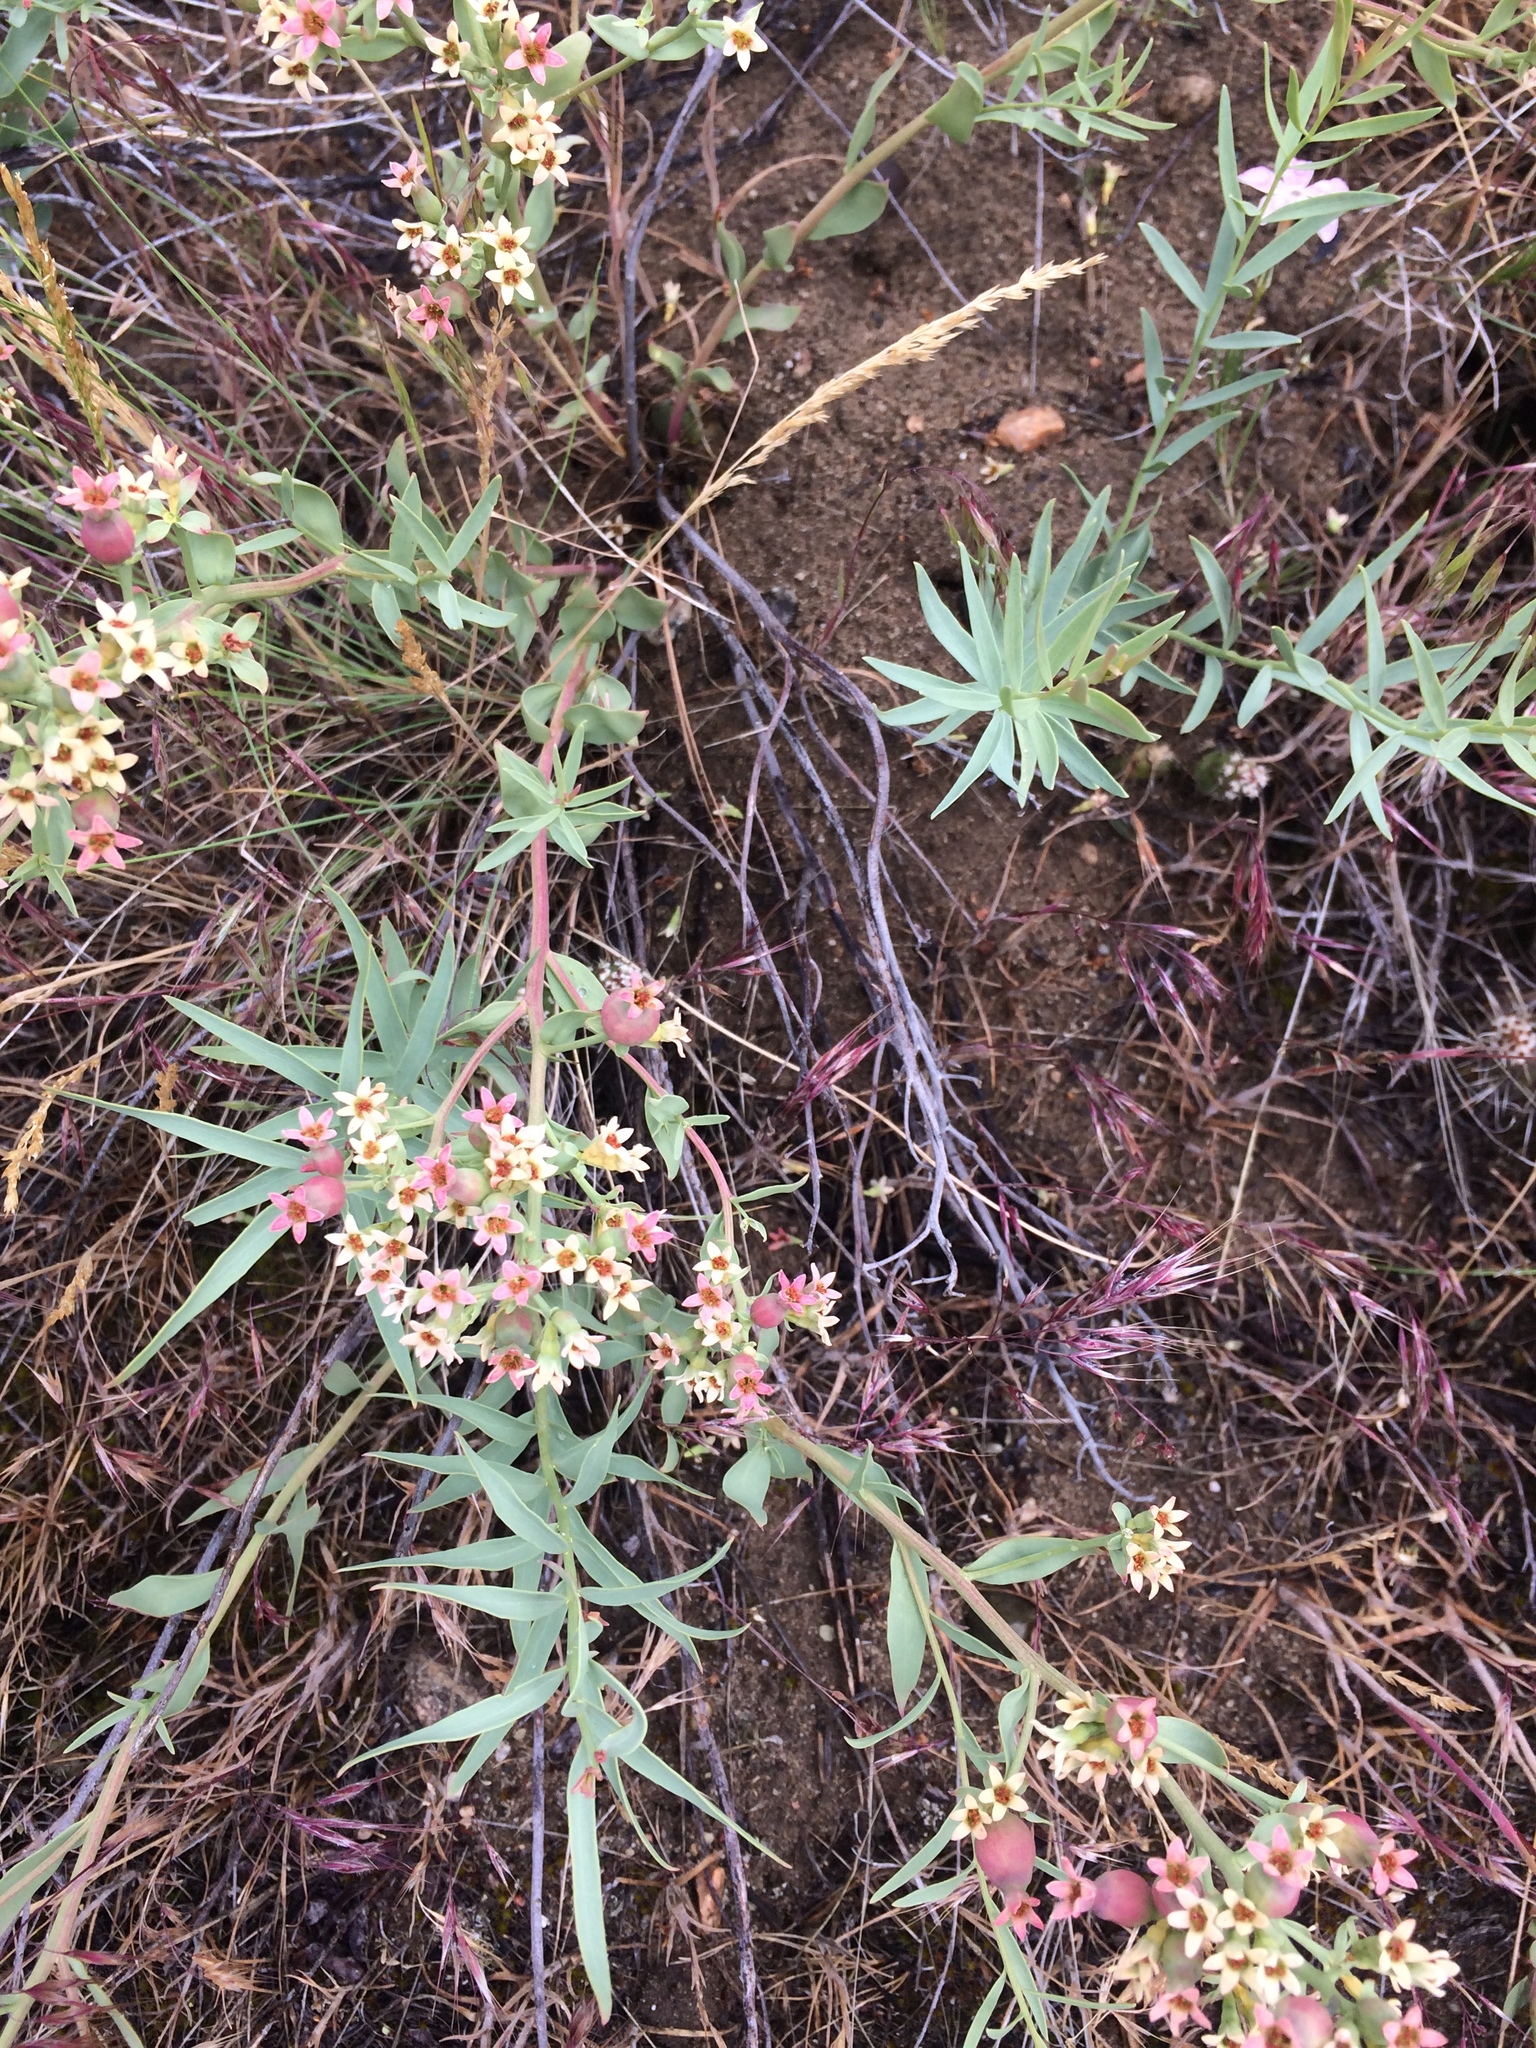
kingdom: Plantae
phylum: Tracheophyta
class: Magnoliopsida
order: Santalales
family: Comandraceae
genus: Comandra
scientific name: Comandra umbellata
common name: Bastard toadflax
